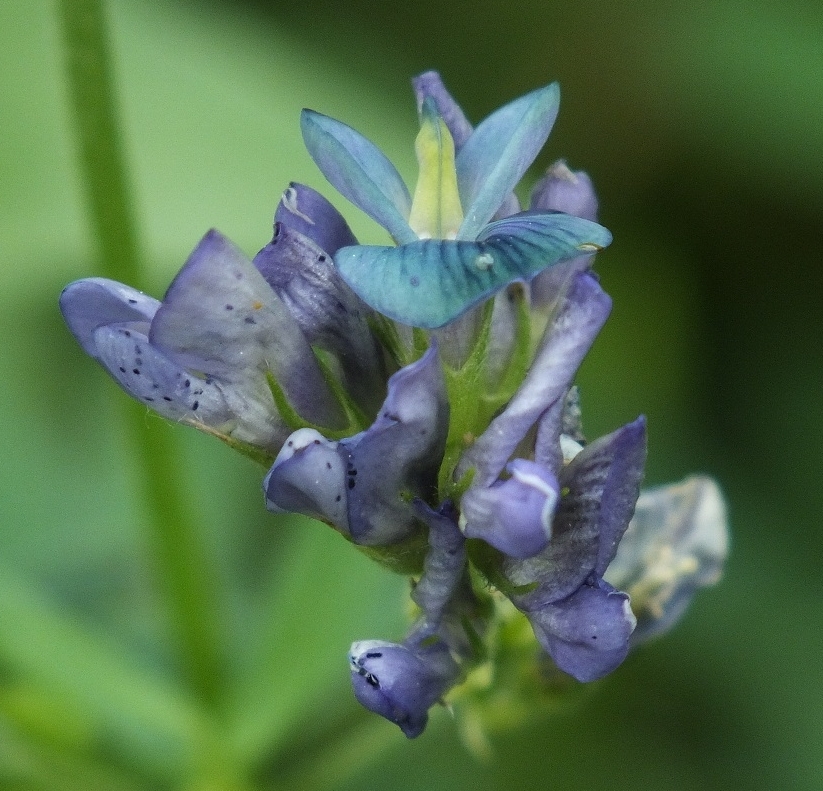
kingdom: Plantae
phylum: Tracheophyta
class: Magnoliopsida
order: Fabales
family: Fabaceae
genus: Medicago
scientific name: Medicago sativa
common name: Alfalfa
